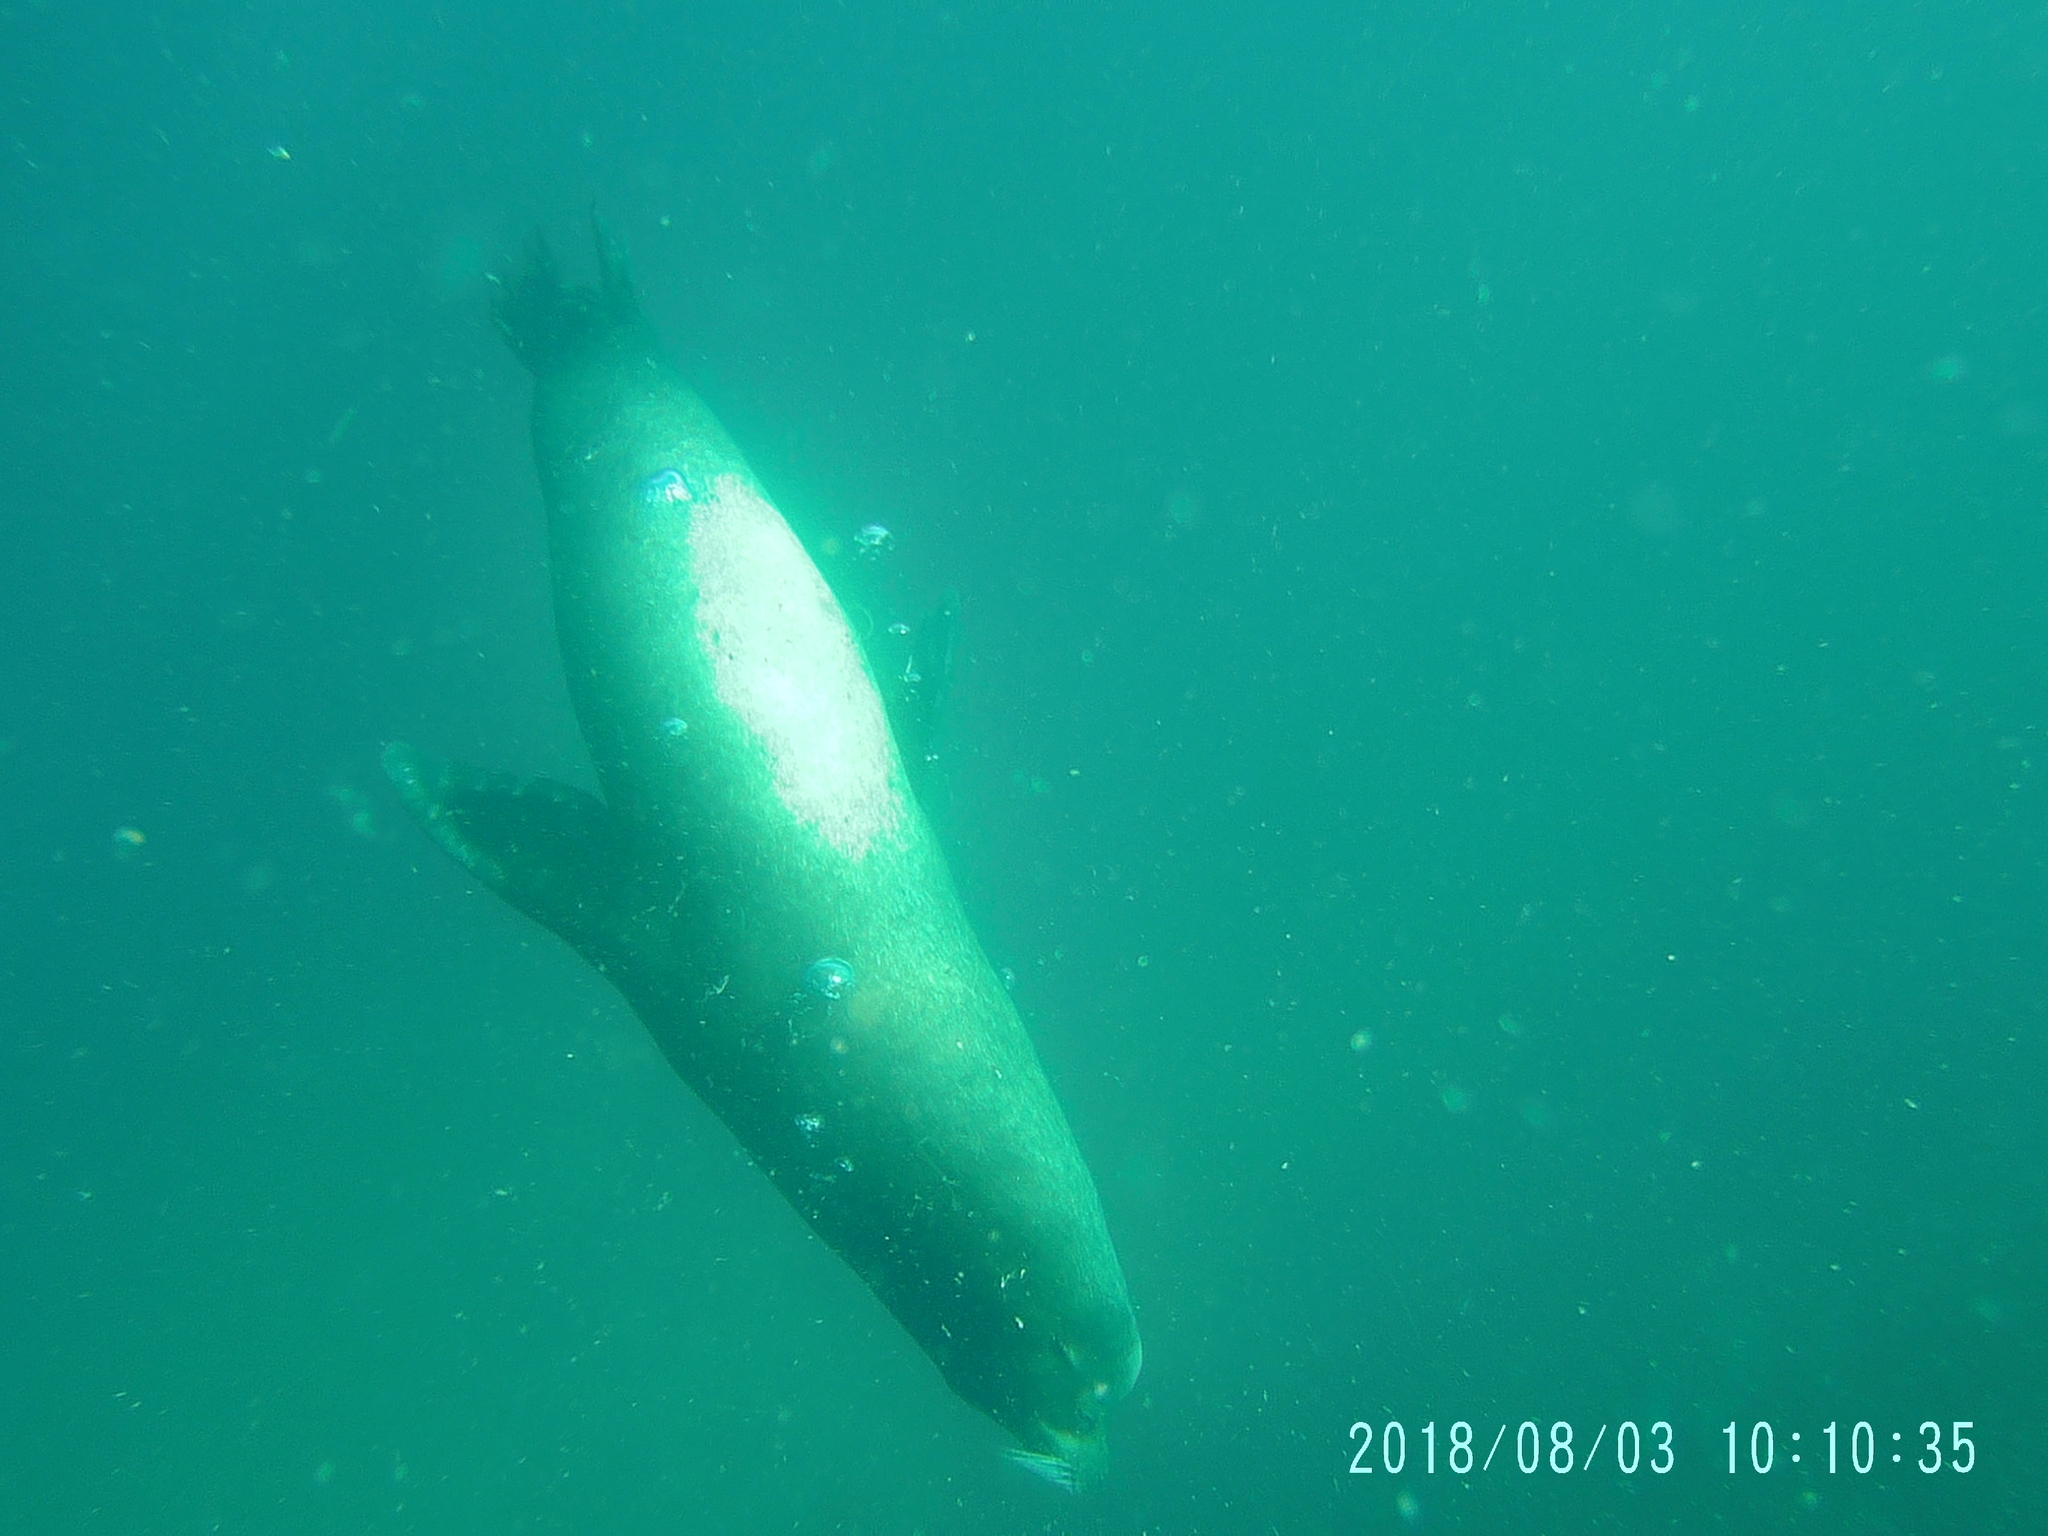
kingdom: Animalia
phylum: Chordata
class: Mammalia
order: Carnivora
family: Otariidae
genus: Zalophus
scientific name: Zalophus californianus
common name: California sea lion
